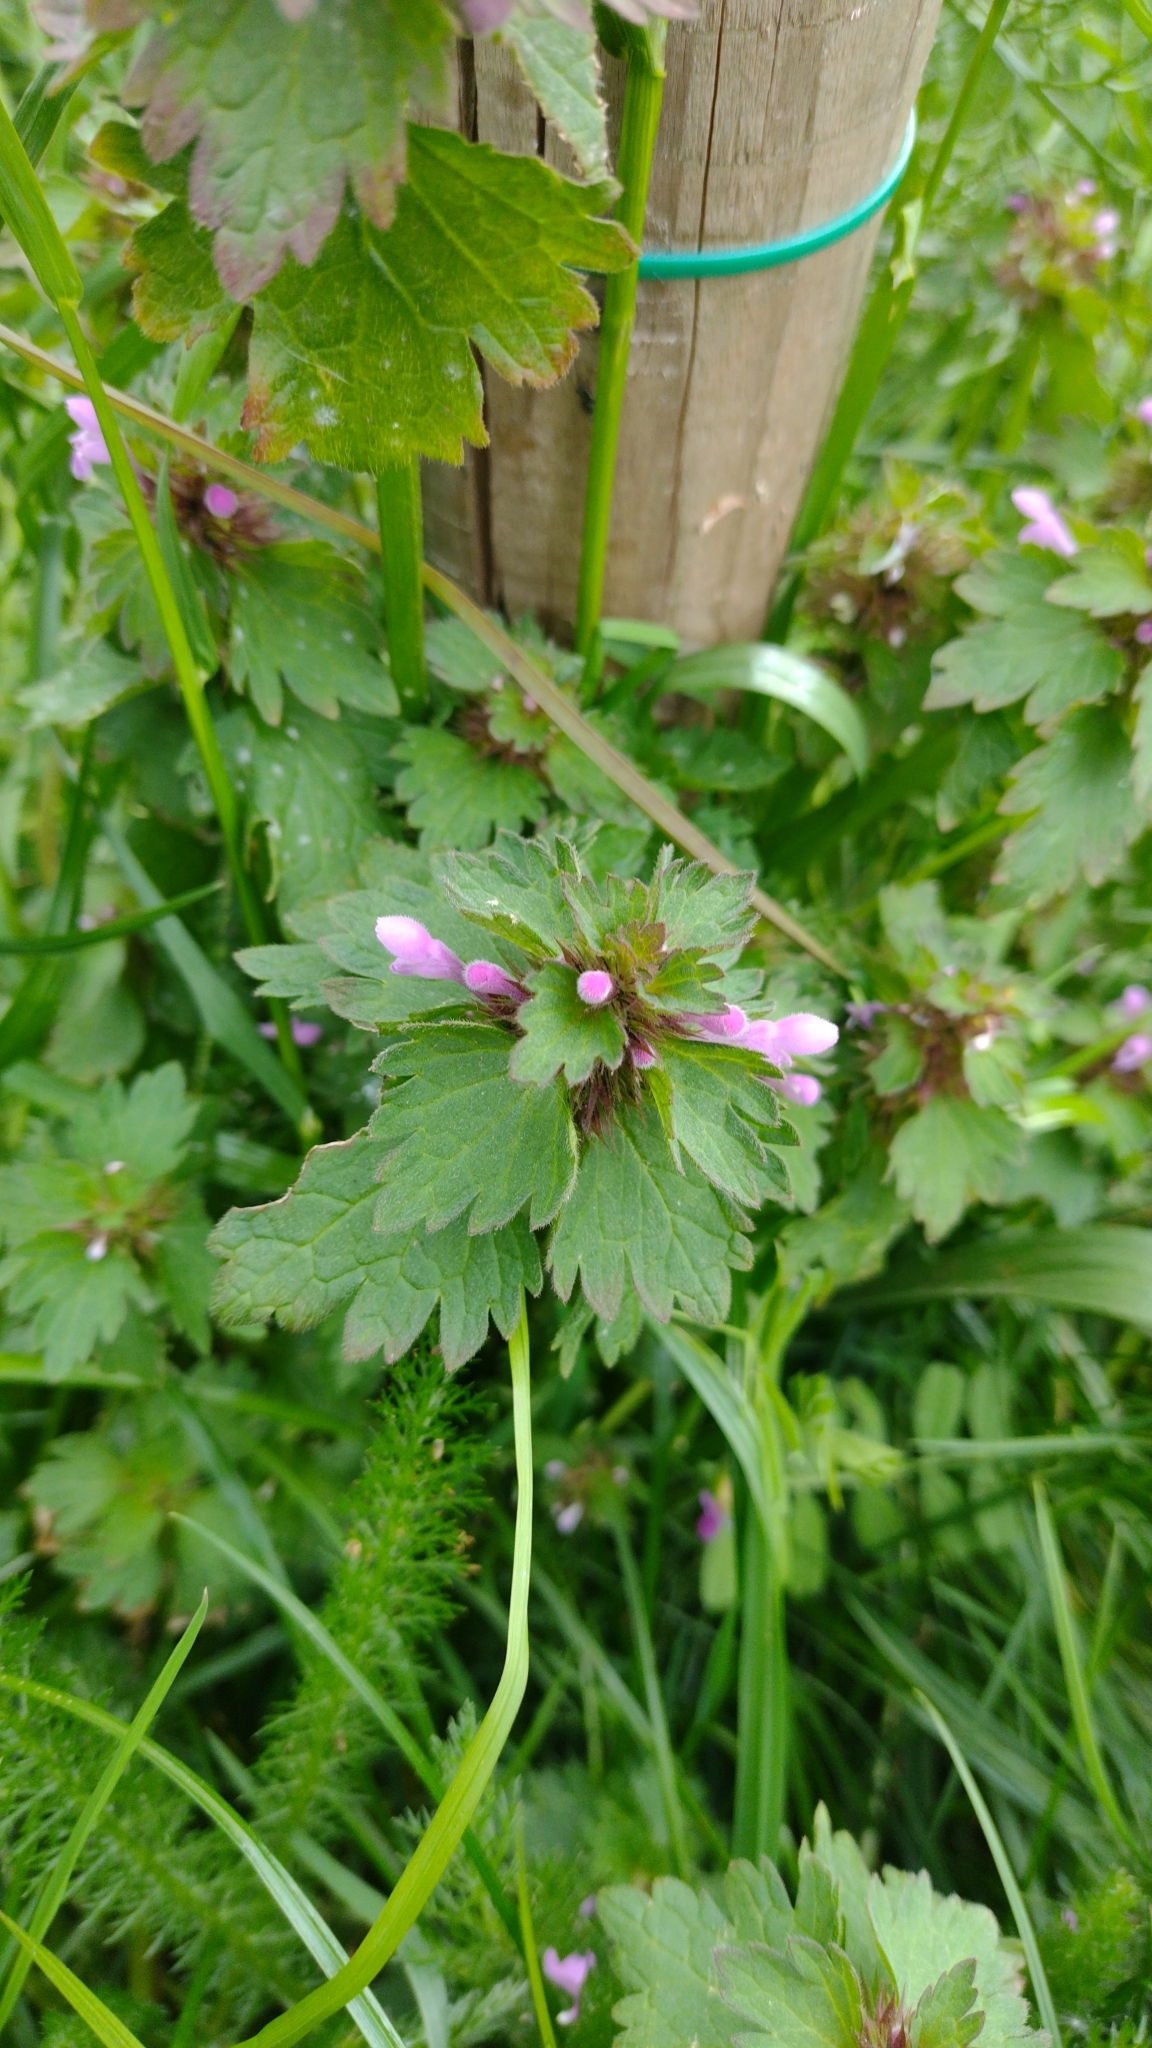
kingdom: Plantae
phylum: Tracheophyta
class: Magnoliopsida
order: Lamiales
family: Lamiaceae
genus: Lamium
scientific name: Lamium hybridum
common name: Cut-leaved dead-nettle
